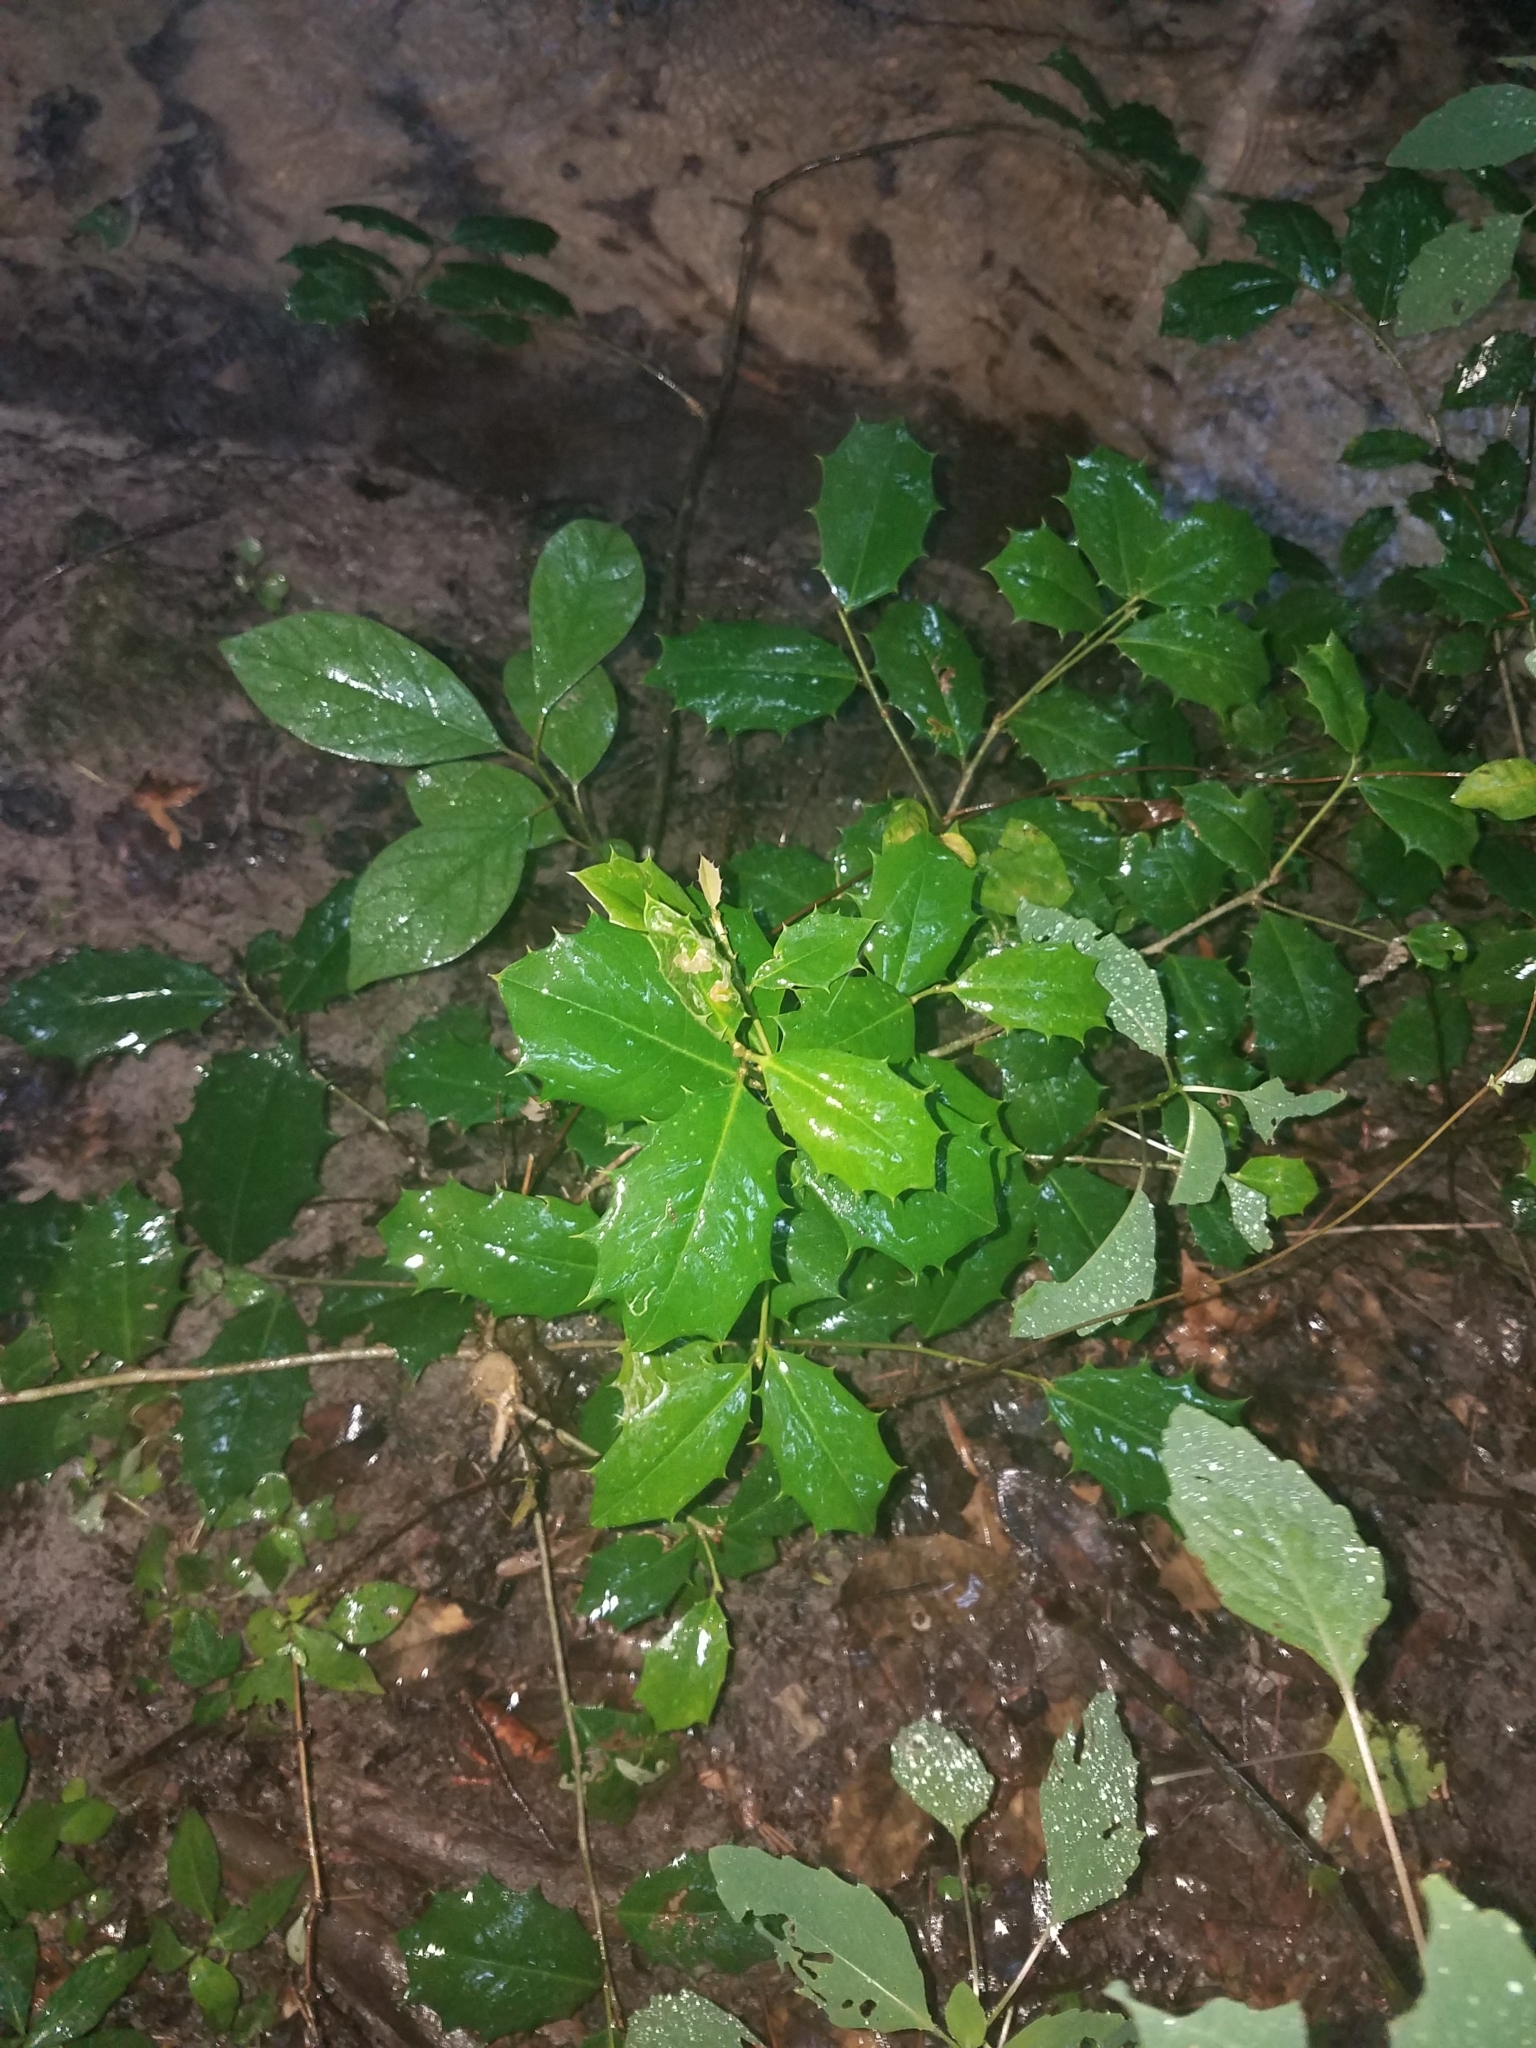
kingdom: Plantae
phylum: Tracheophyta
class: Magnoliopsida
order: Aquifoliales
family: Aquifoliaceae
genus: Ilex
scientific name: Ilex opaca
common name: American holly
